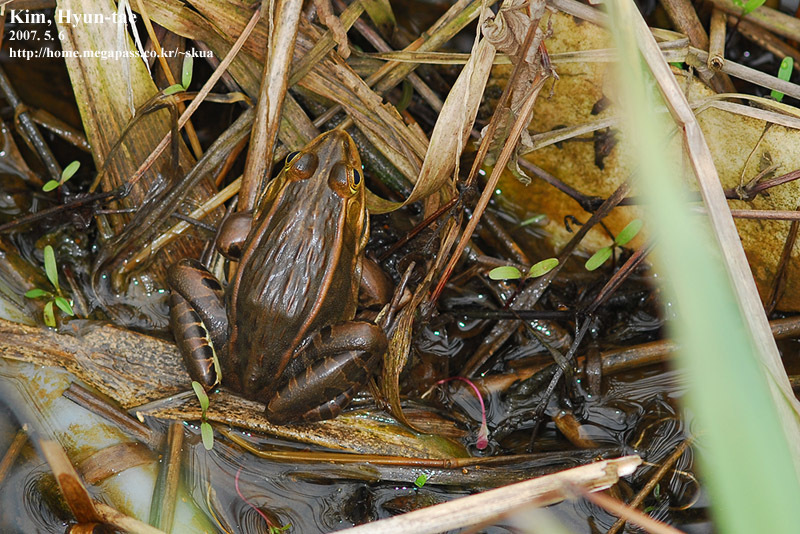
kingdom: Animalia
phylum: Chordata
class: Amphibia
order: Anura
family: Ranidae
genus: Pelophylax
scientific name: Pelophylax nigromaculatus
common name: Black-spotted pond frog
